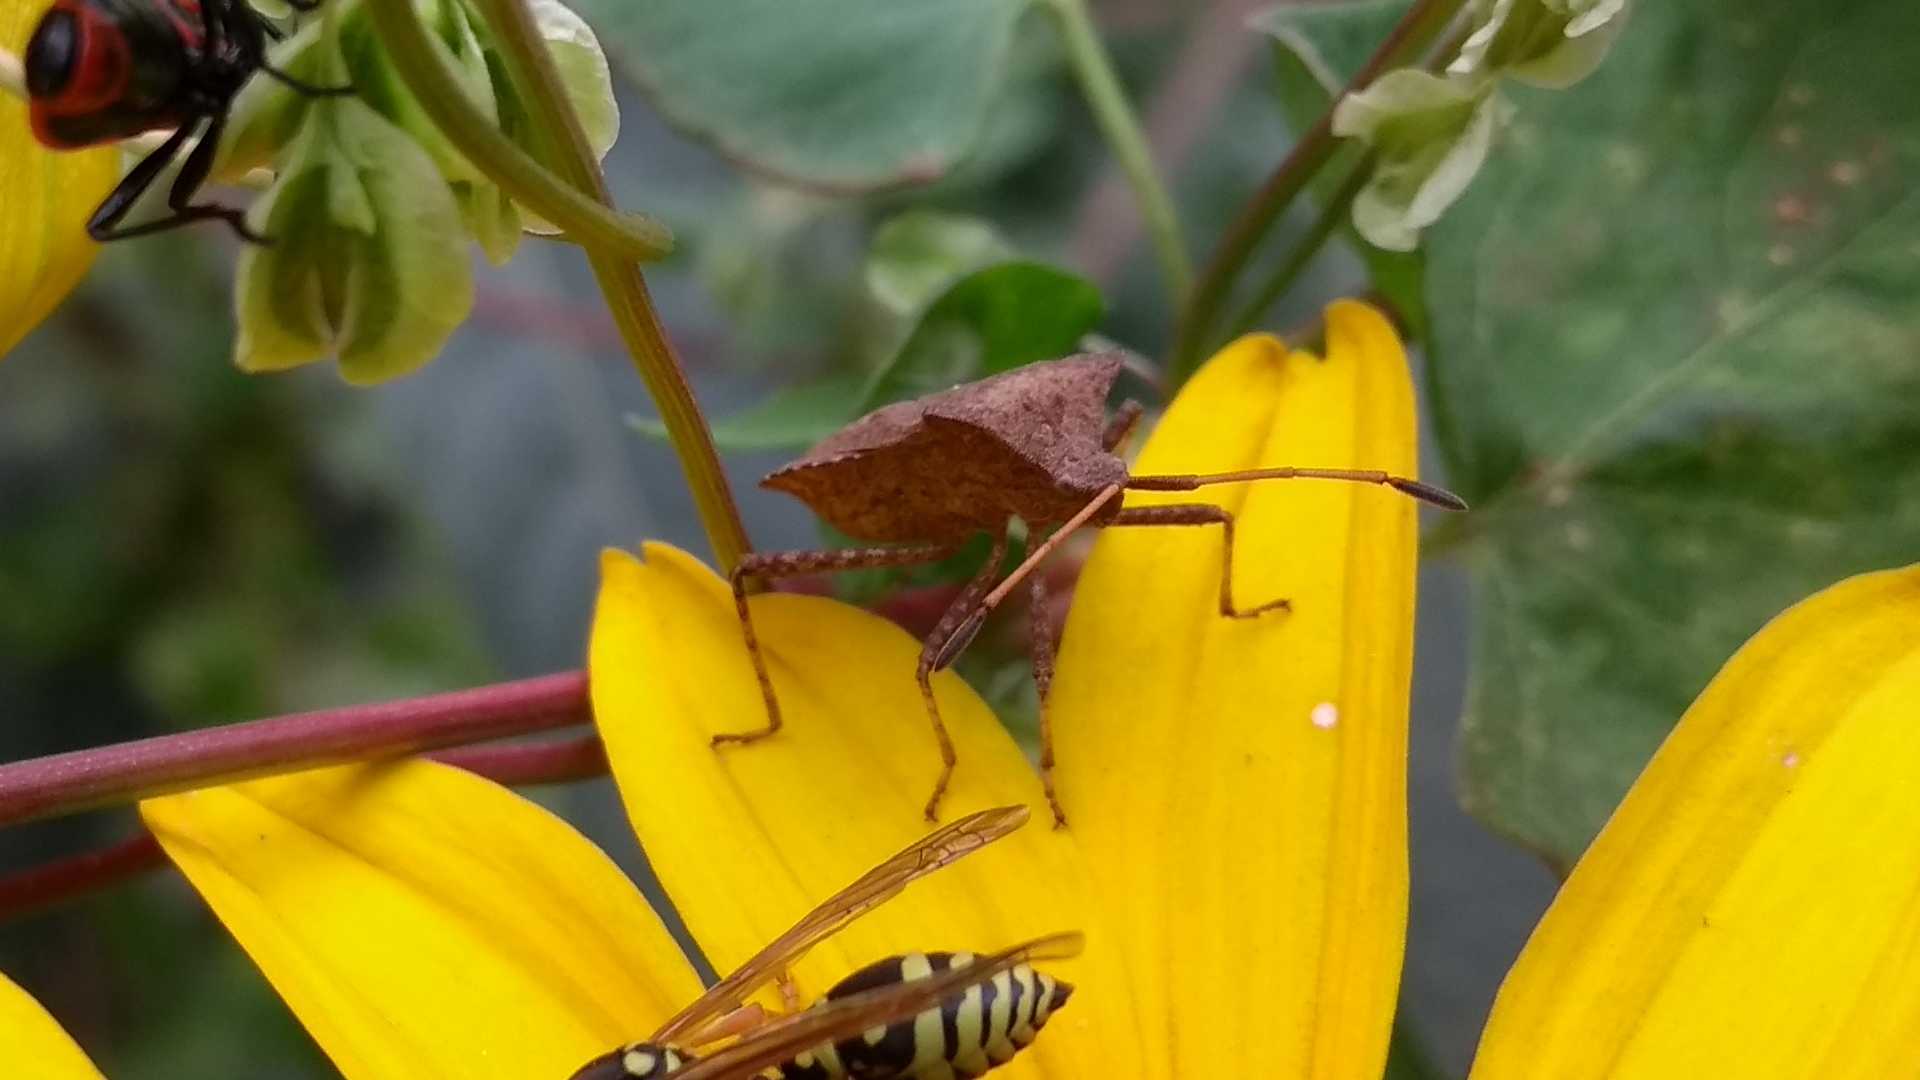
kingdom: Animalia
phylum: Arthropoda
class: Insecta
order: Hemiptera
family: Coreidae
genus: Coreus
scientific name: Coreus marginatus
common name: Dock bug
